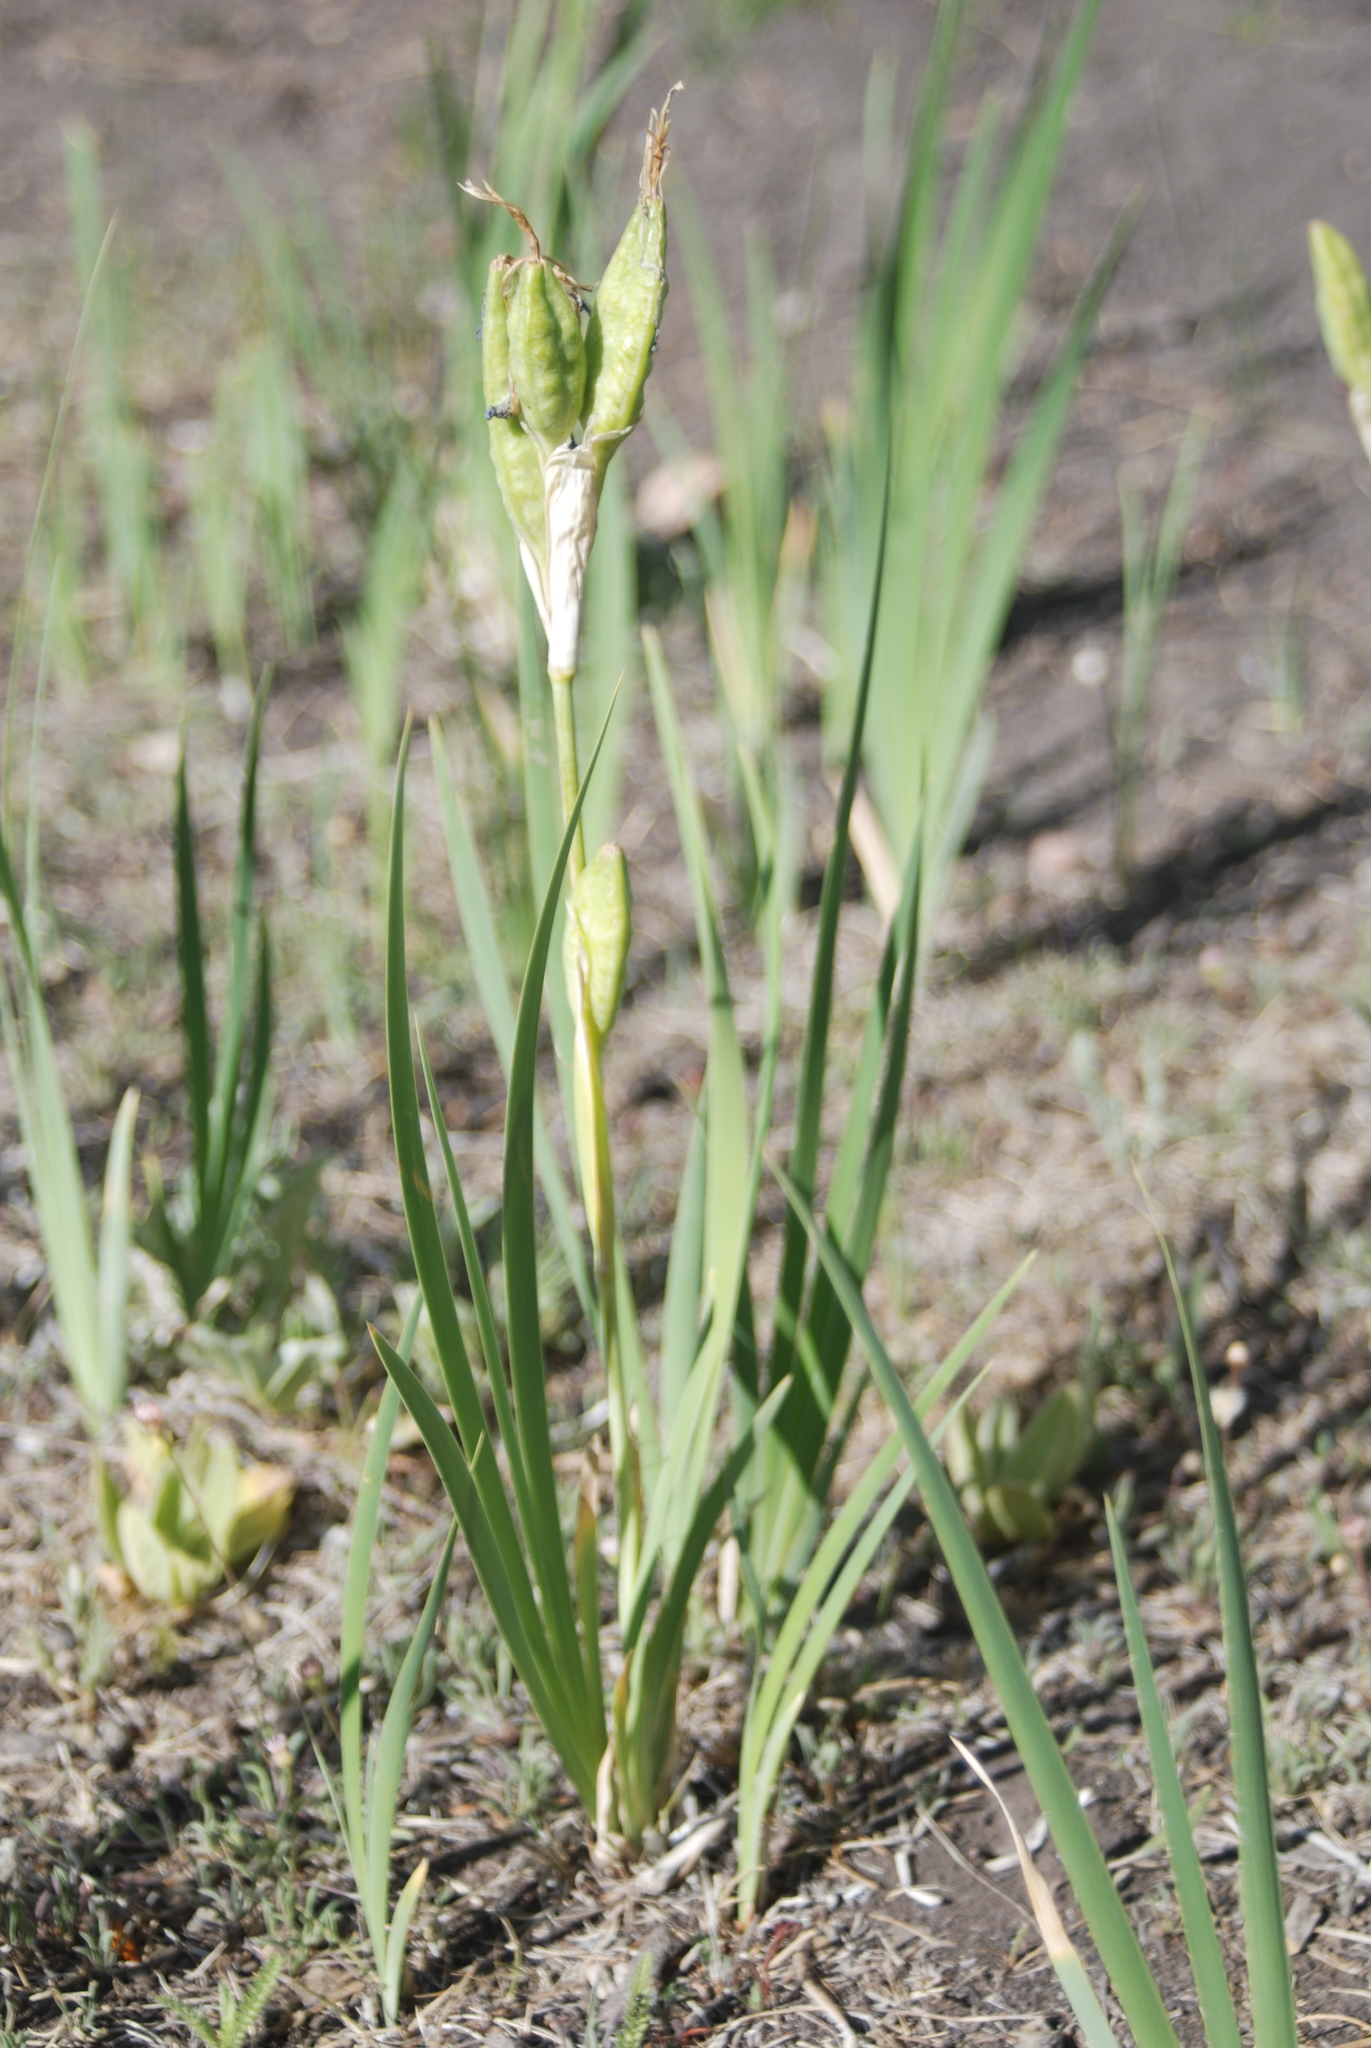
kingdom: Plantae
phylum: Tracheophyta
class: Liliopsida
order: Asparagales
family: Iridaceae
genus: Iris
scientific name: Iris missouriensis
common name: Rocky mountain iris
